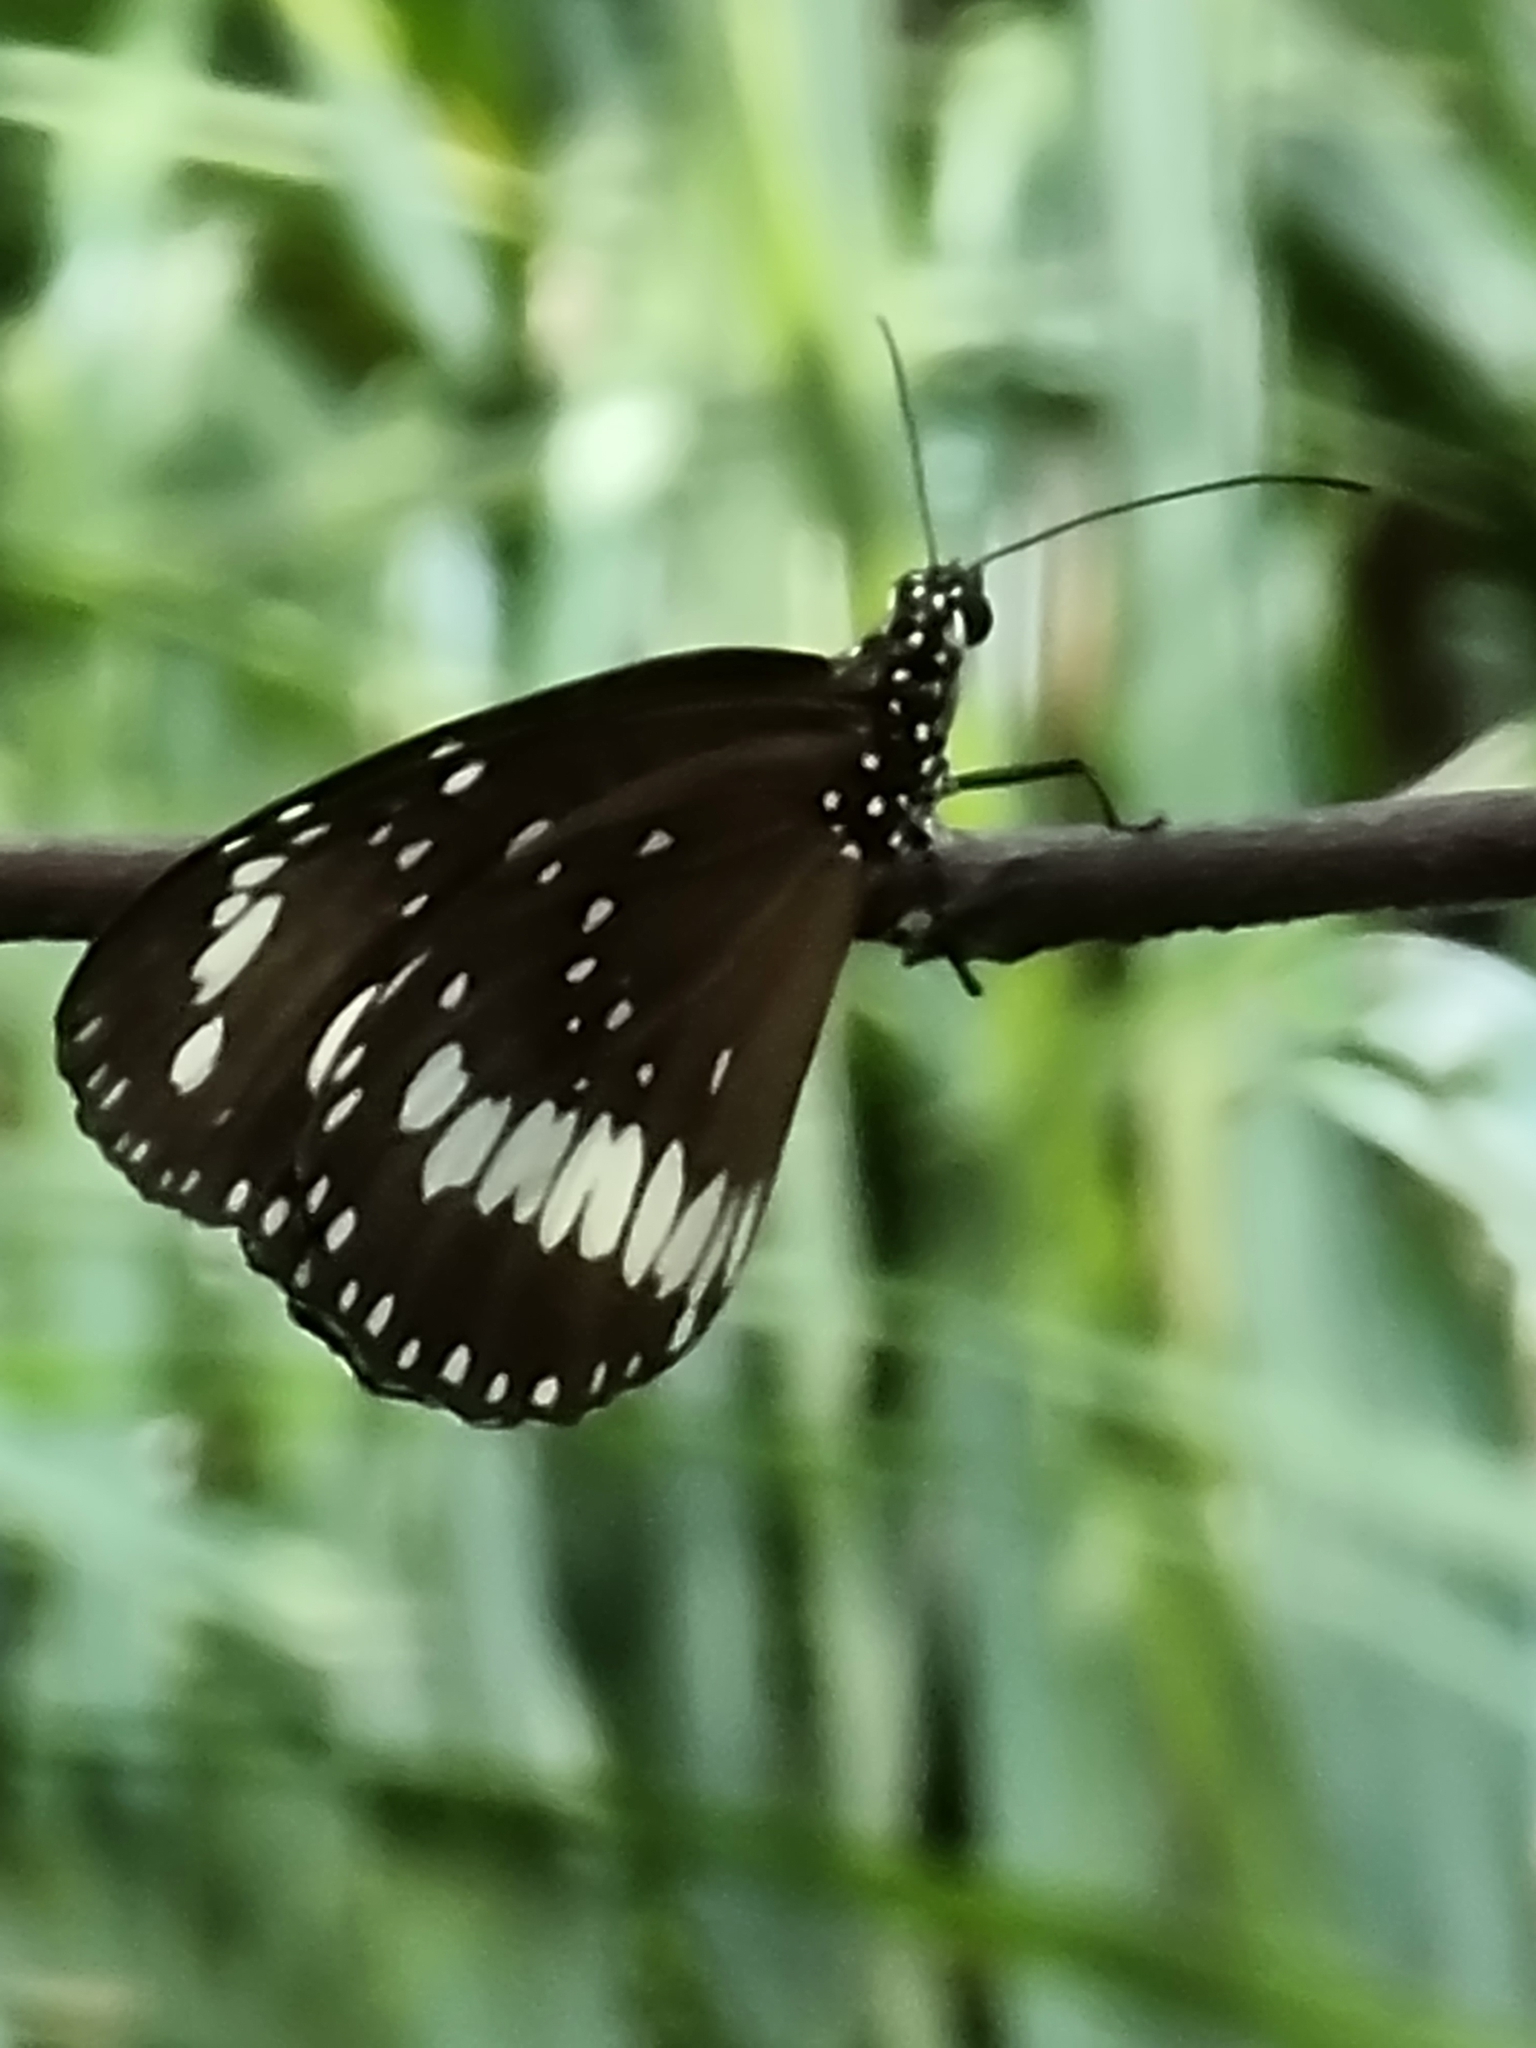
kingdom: Animalia
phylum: Arthropoda
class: Insecta
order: Lepidoptera
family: Nymphalidae
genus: Euploea
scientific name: Euploea core
